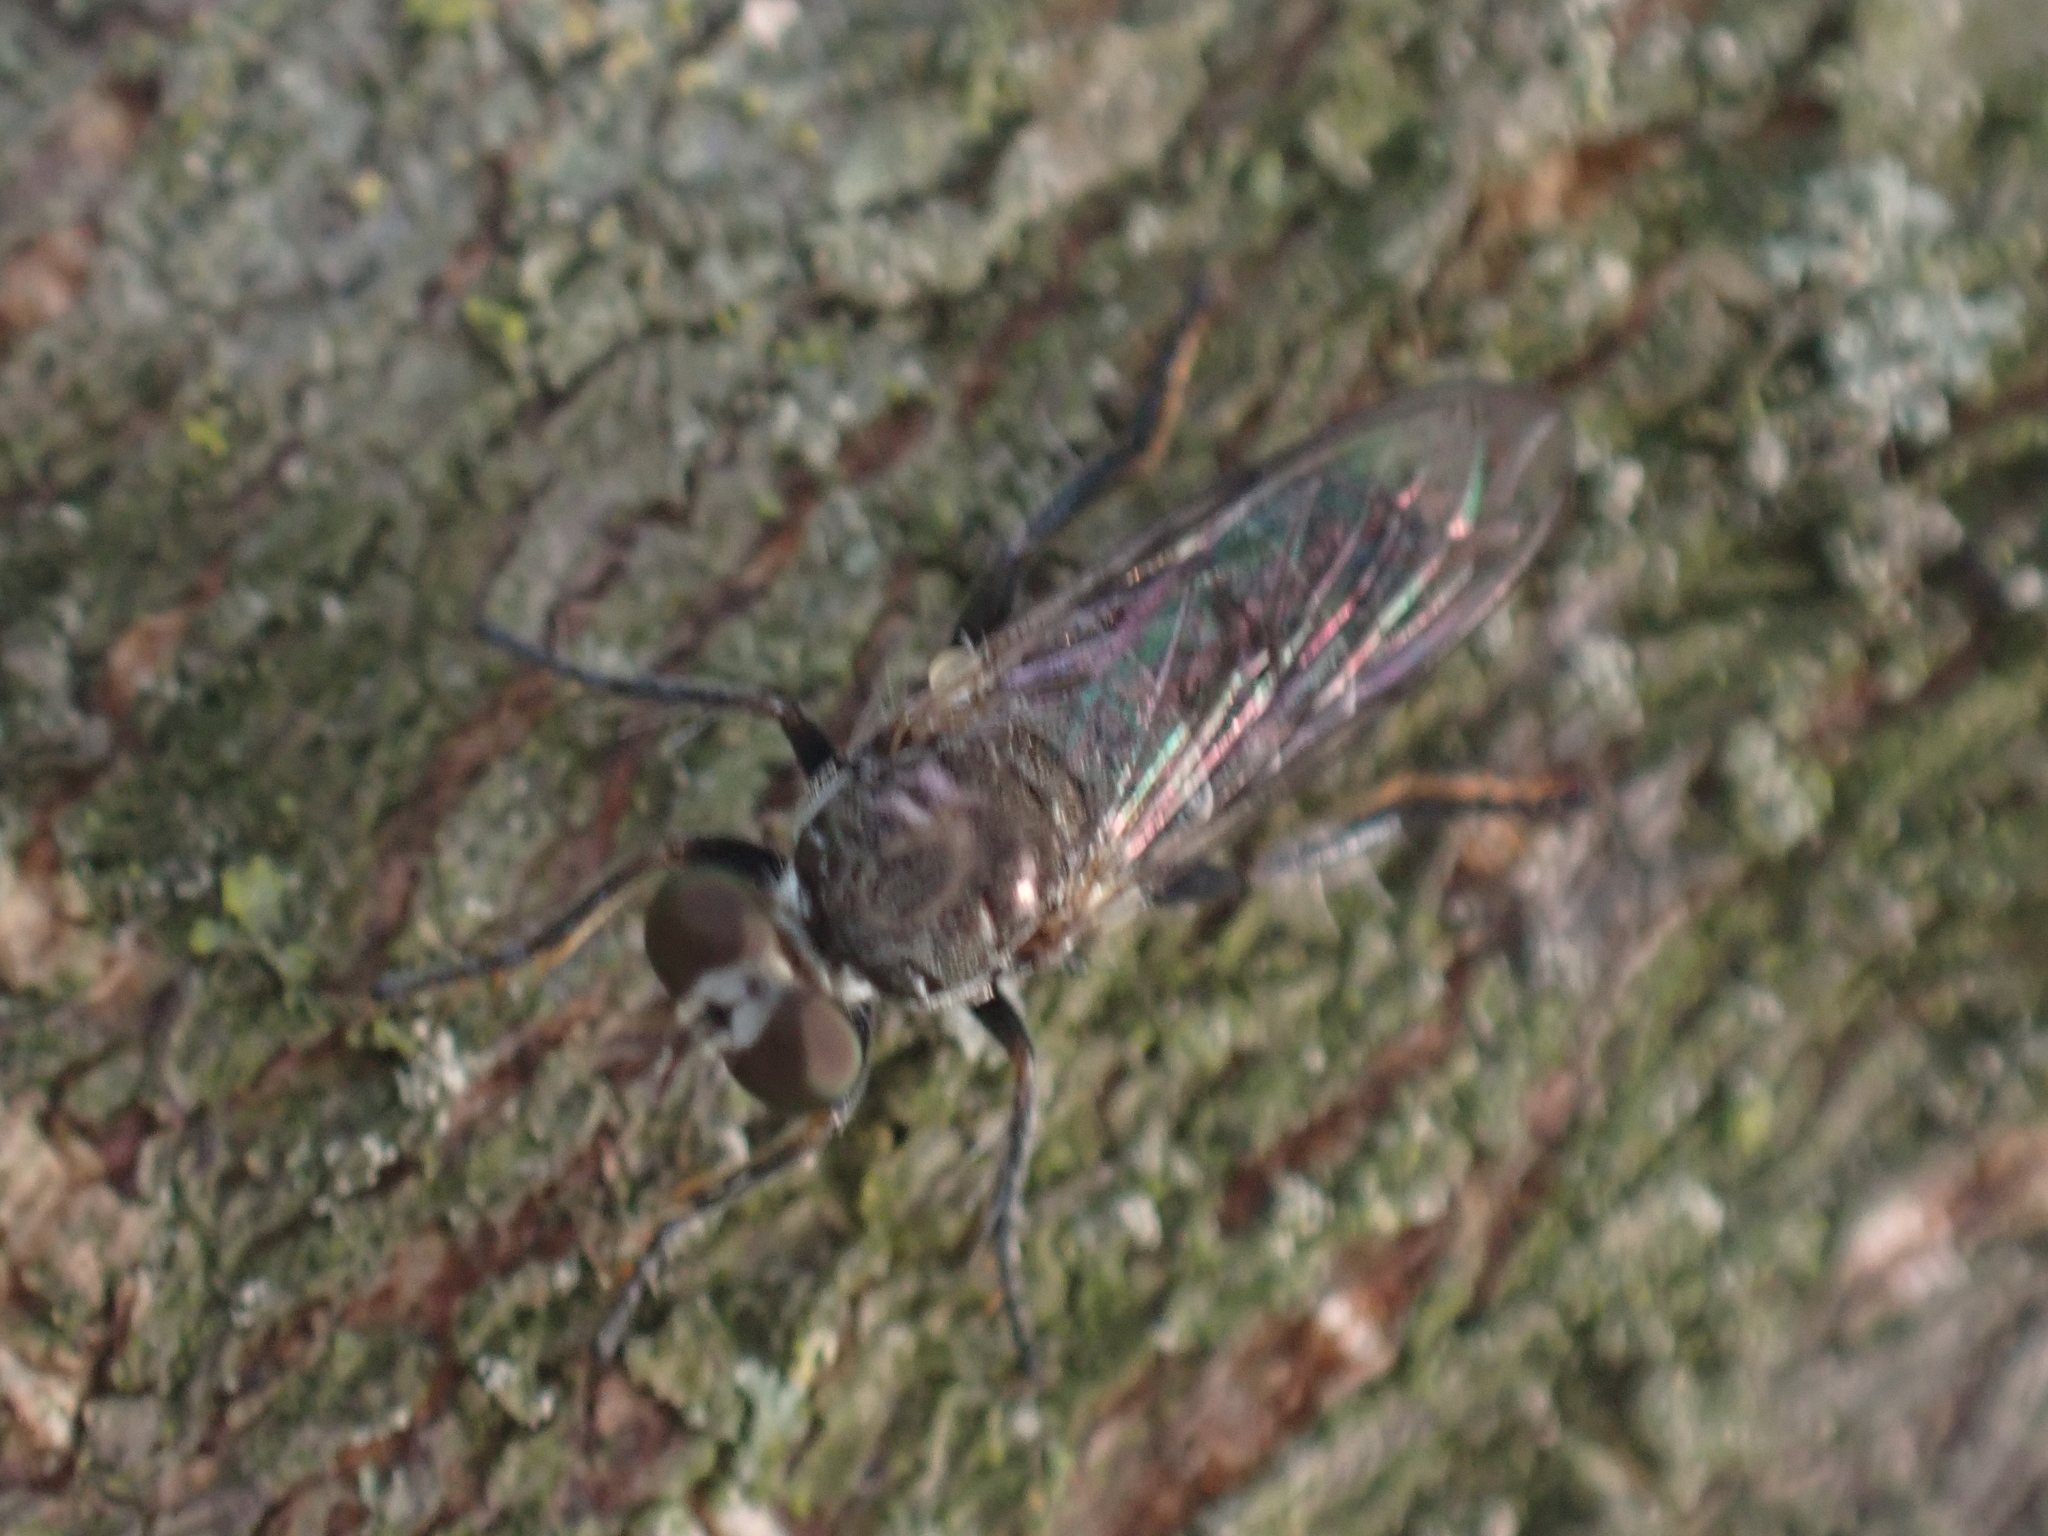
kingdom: Animalia
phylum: Arthropoda
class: Insecta
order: Diptera
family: Asilidae
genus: Atomosia
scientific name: Atomosia puella
